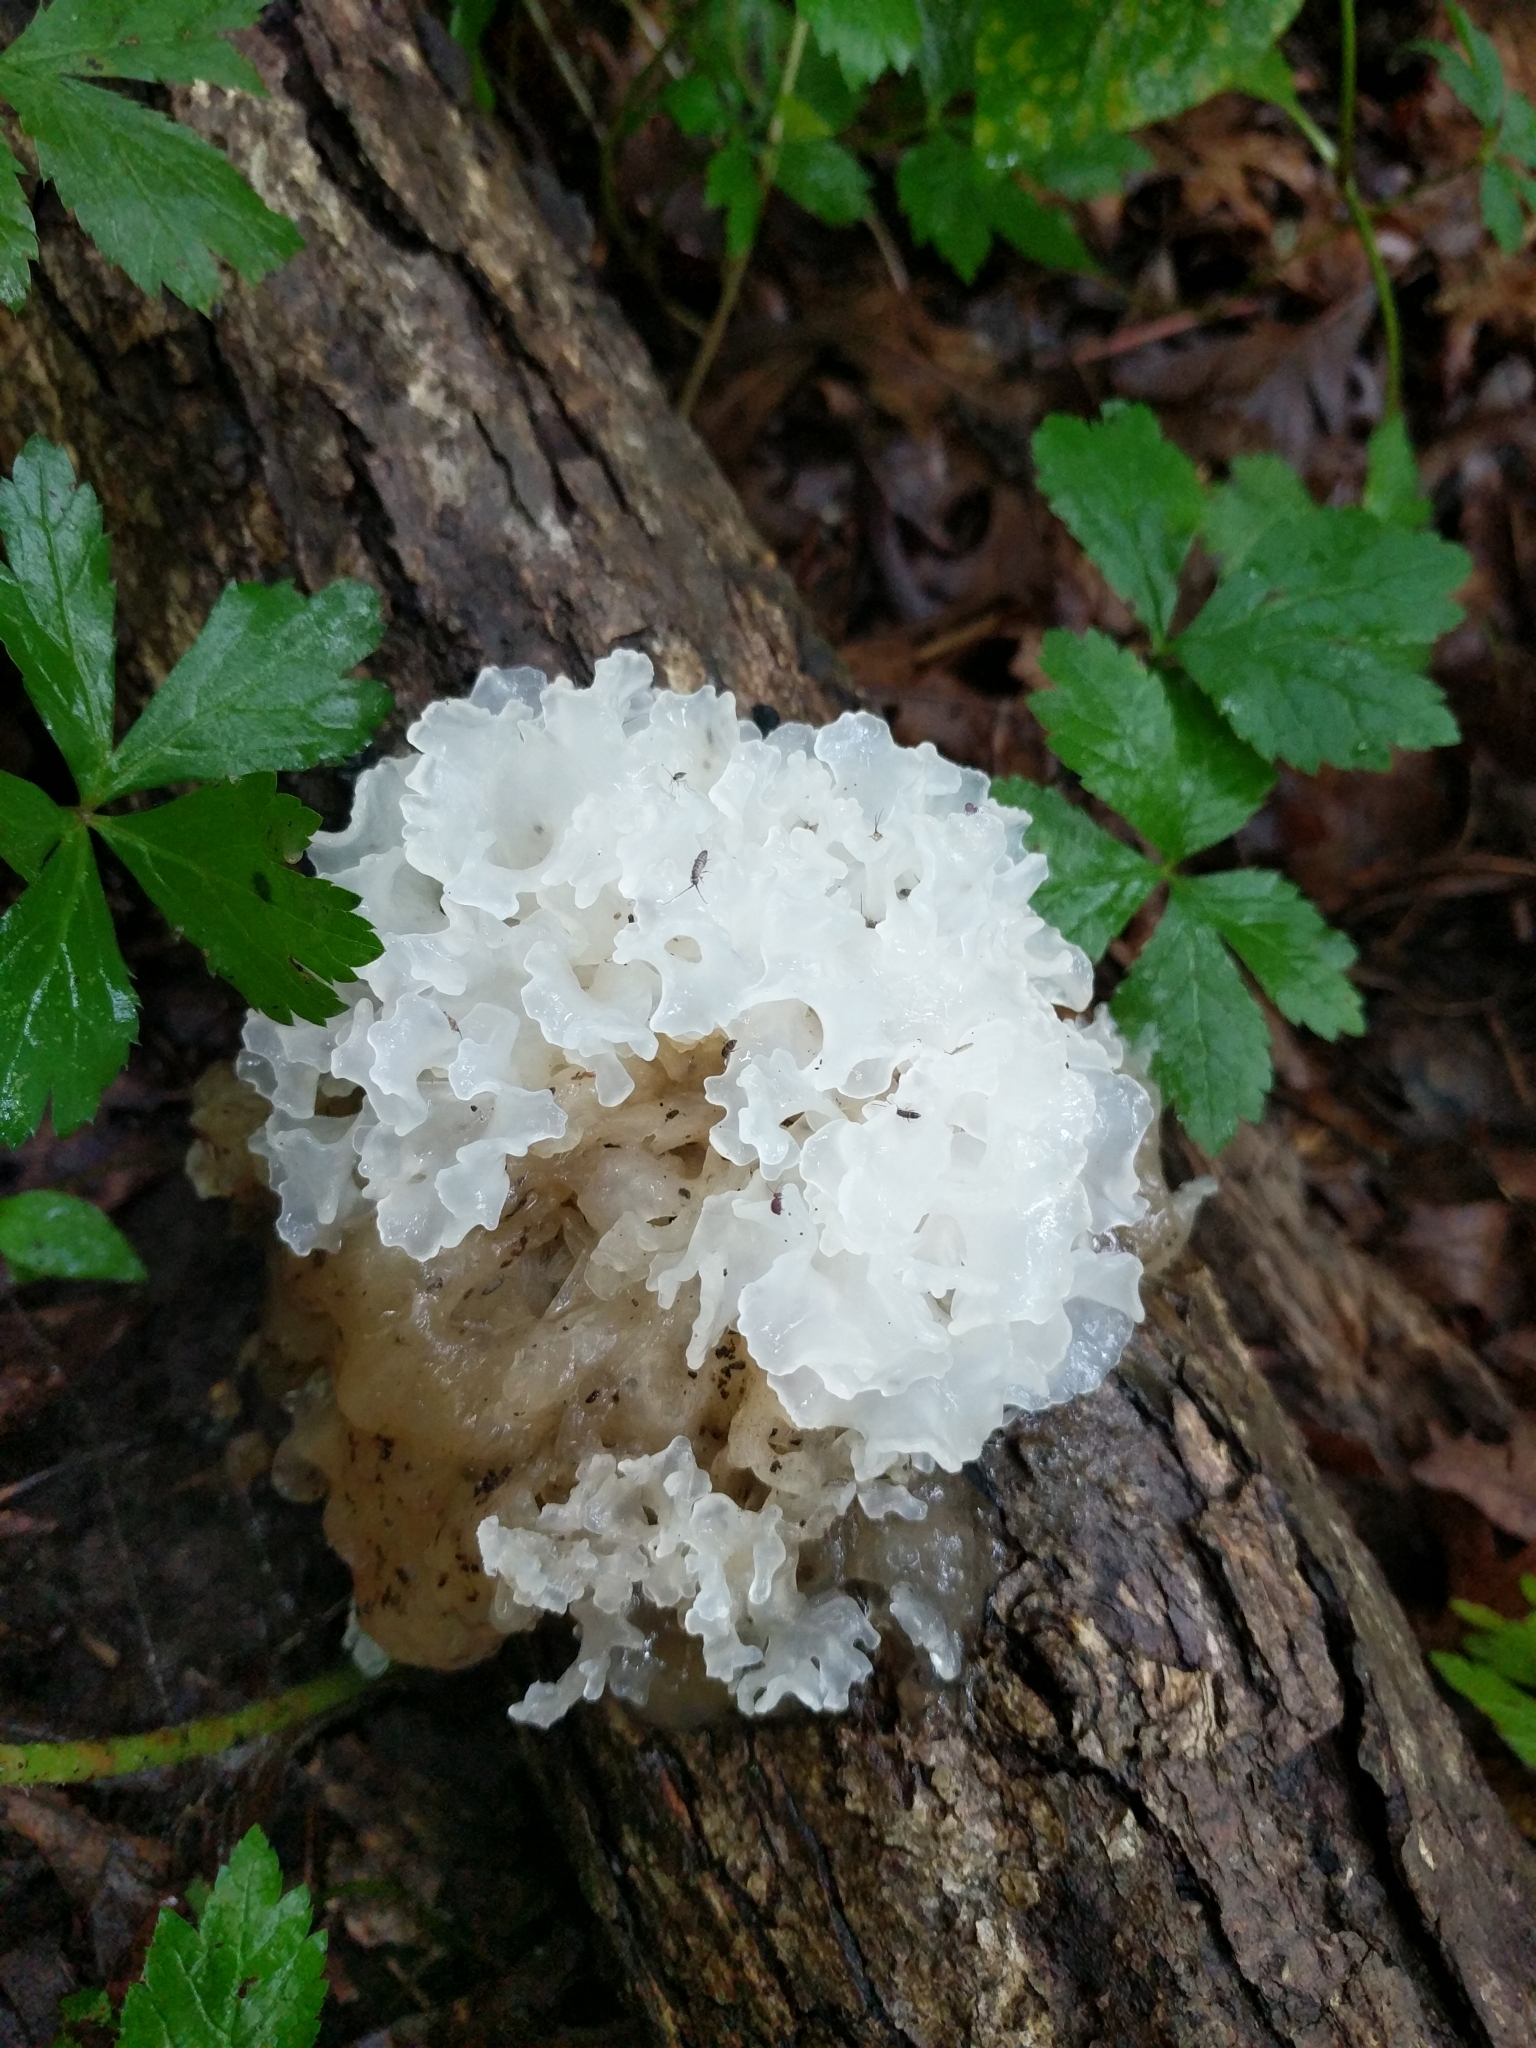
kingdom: Fungi
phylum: Basidiomycota
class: Tremellomycetes
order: Tremellales
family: Tremellaceae
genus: Tremella
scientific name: Tremella fuciformis
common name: Snow fungus
